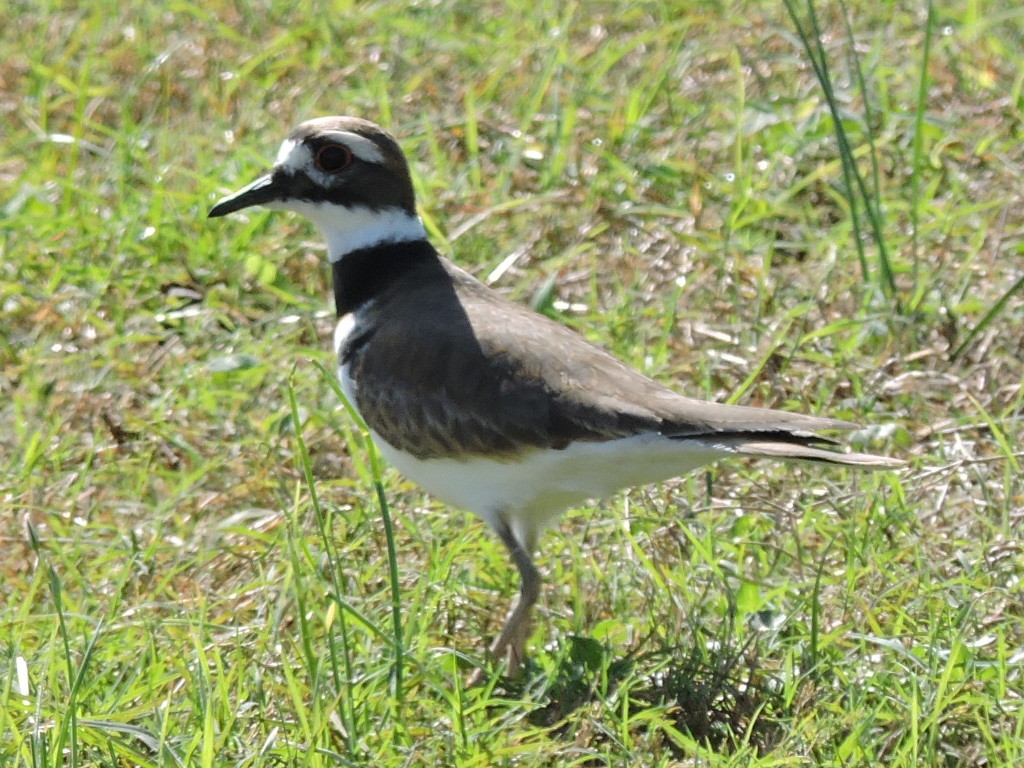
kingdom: Animalia
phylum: Chordata
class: Aves
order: Charadriiformes
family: Charadriidae
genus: Charadrius
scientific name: Charadrius vociferus
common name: Killdeer
